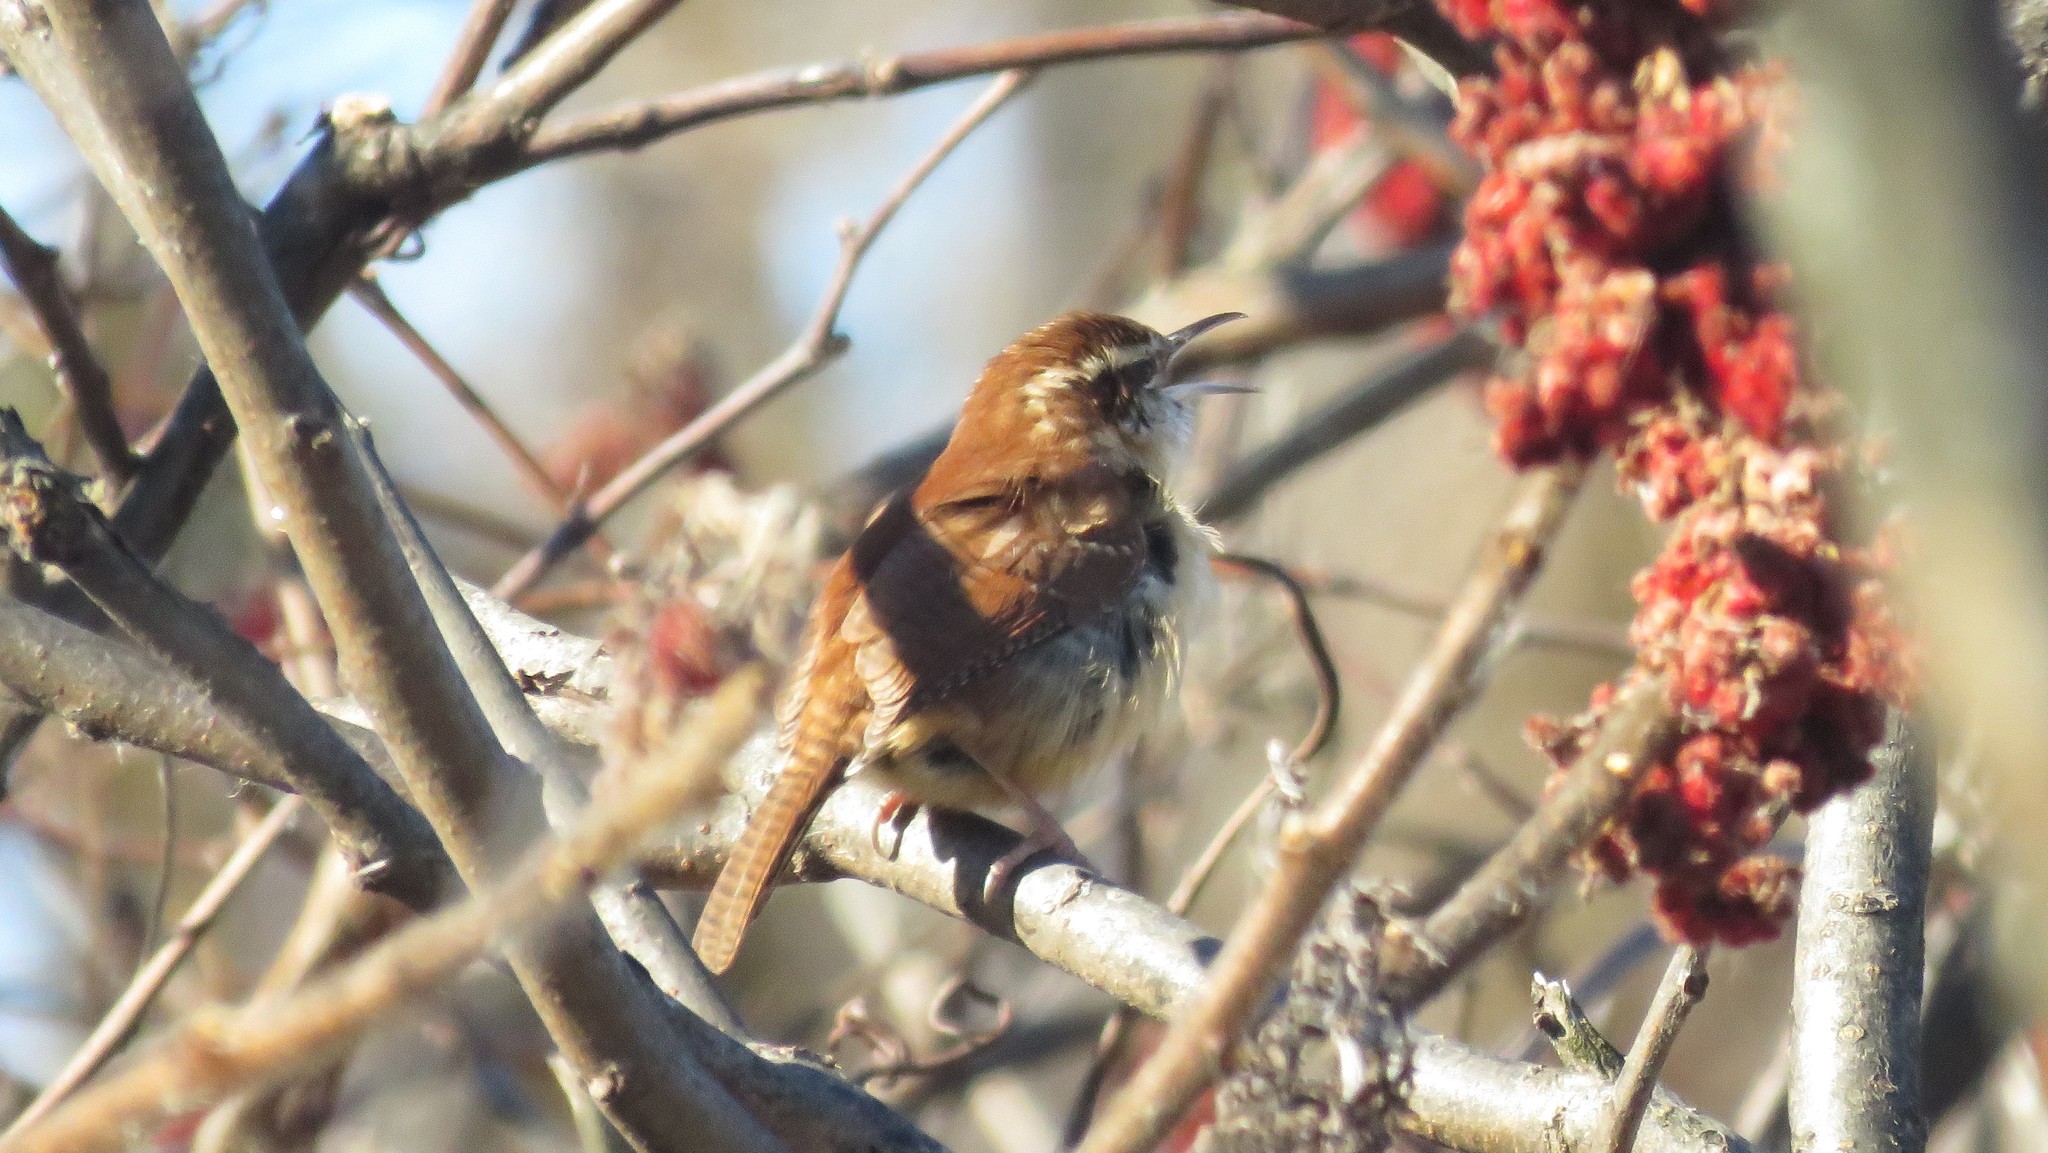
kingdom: Animalia
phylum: Chordata
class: Aves
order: Passeriformes
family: Troglodytidae
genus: Thryothorus
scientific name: Thryothorus ludovicianus
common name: Carolina wren
